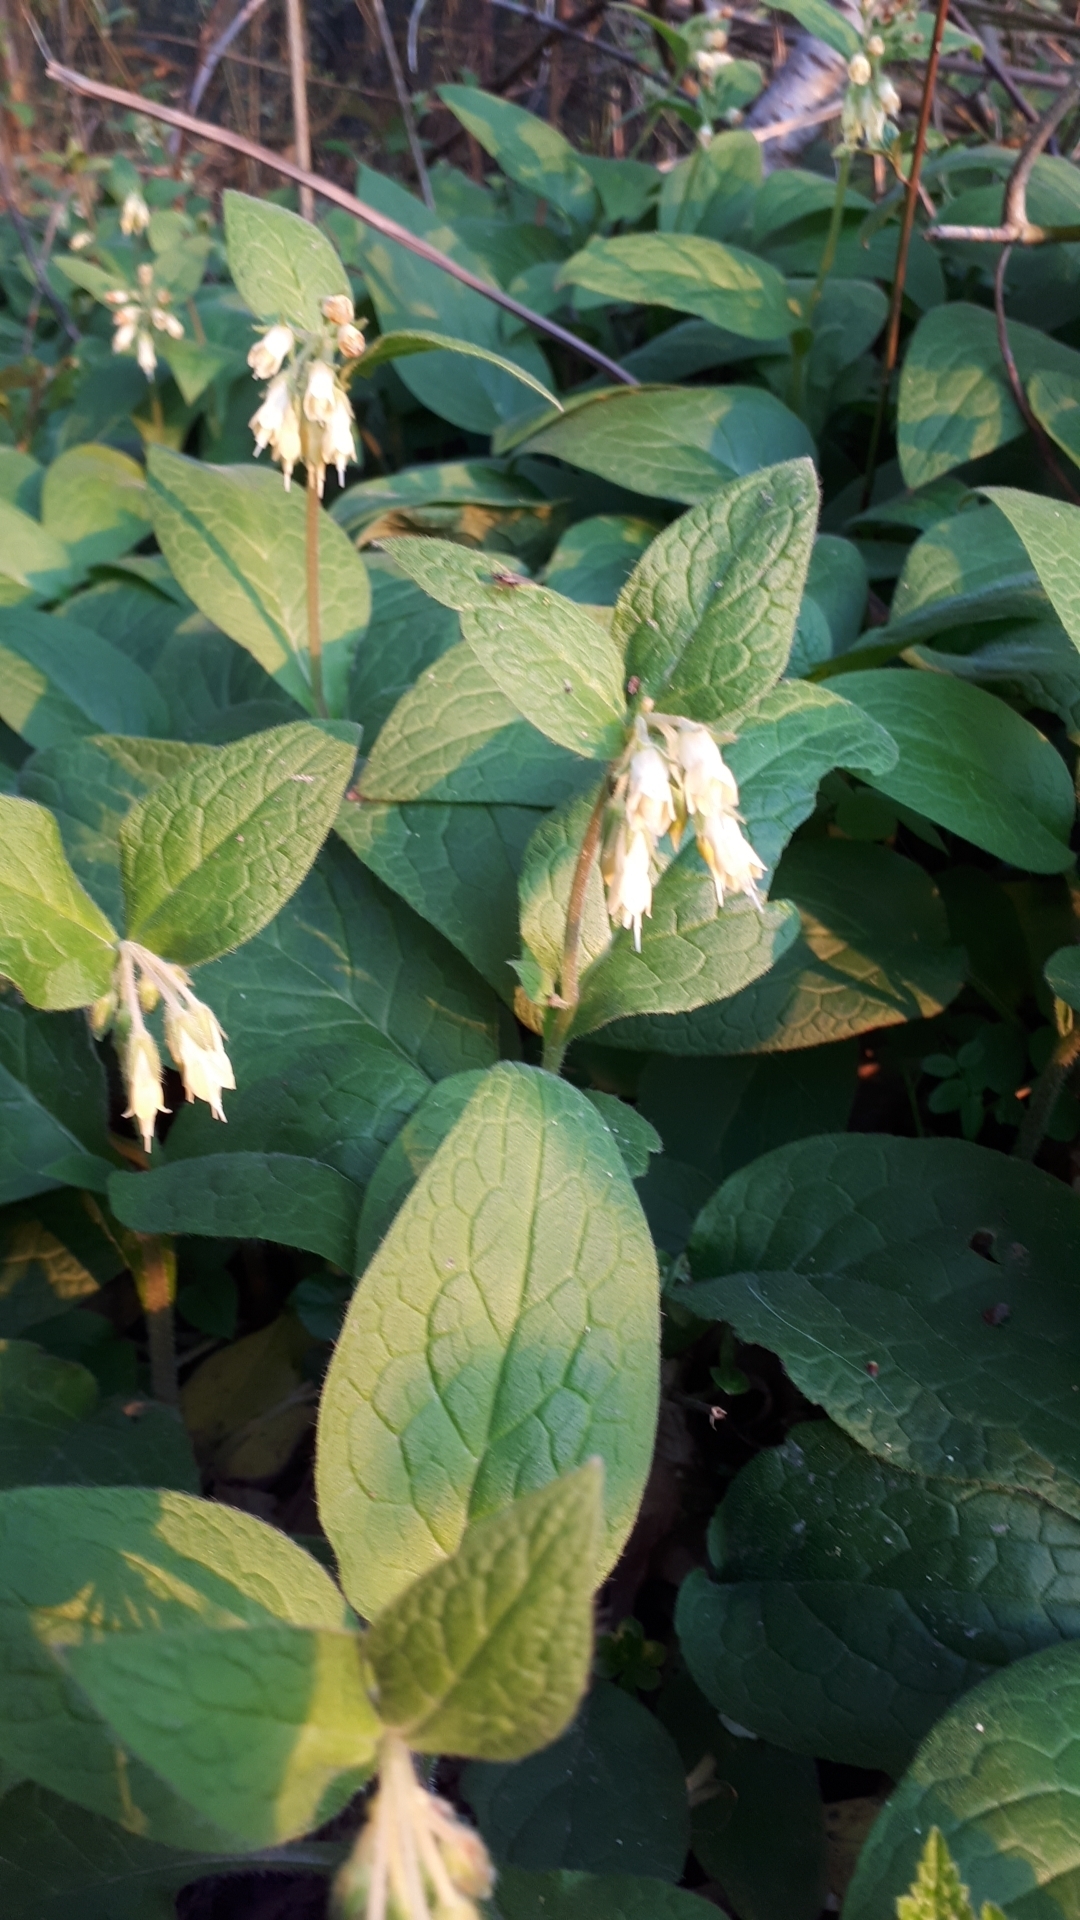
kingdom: Plantae
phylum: Tracheophyta
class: Magnoliopsida
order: Boraginales
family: Boraginaceae
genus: Symphytum
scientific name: Symphytum bulbosum
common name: Bulbous comfrey
